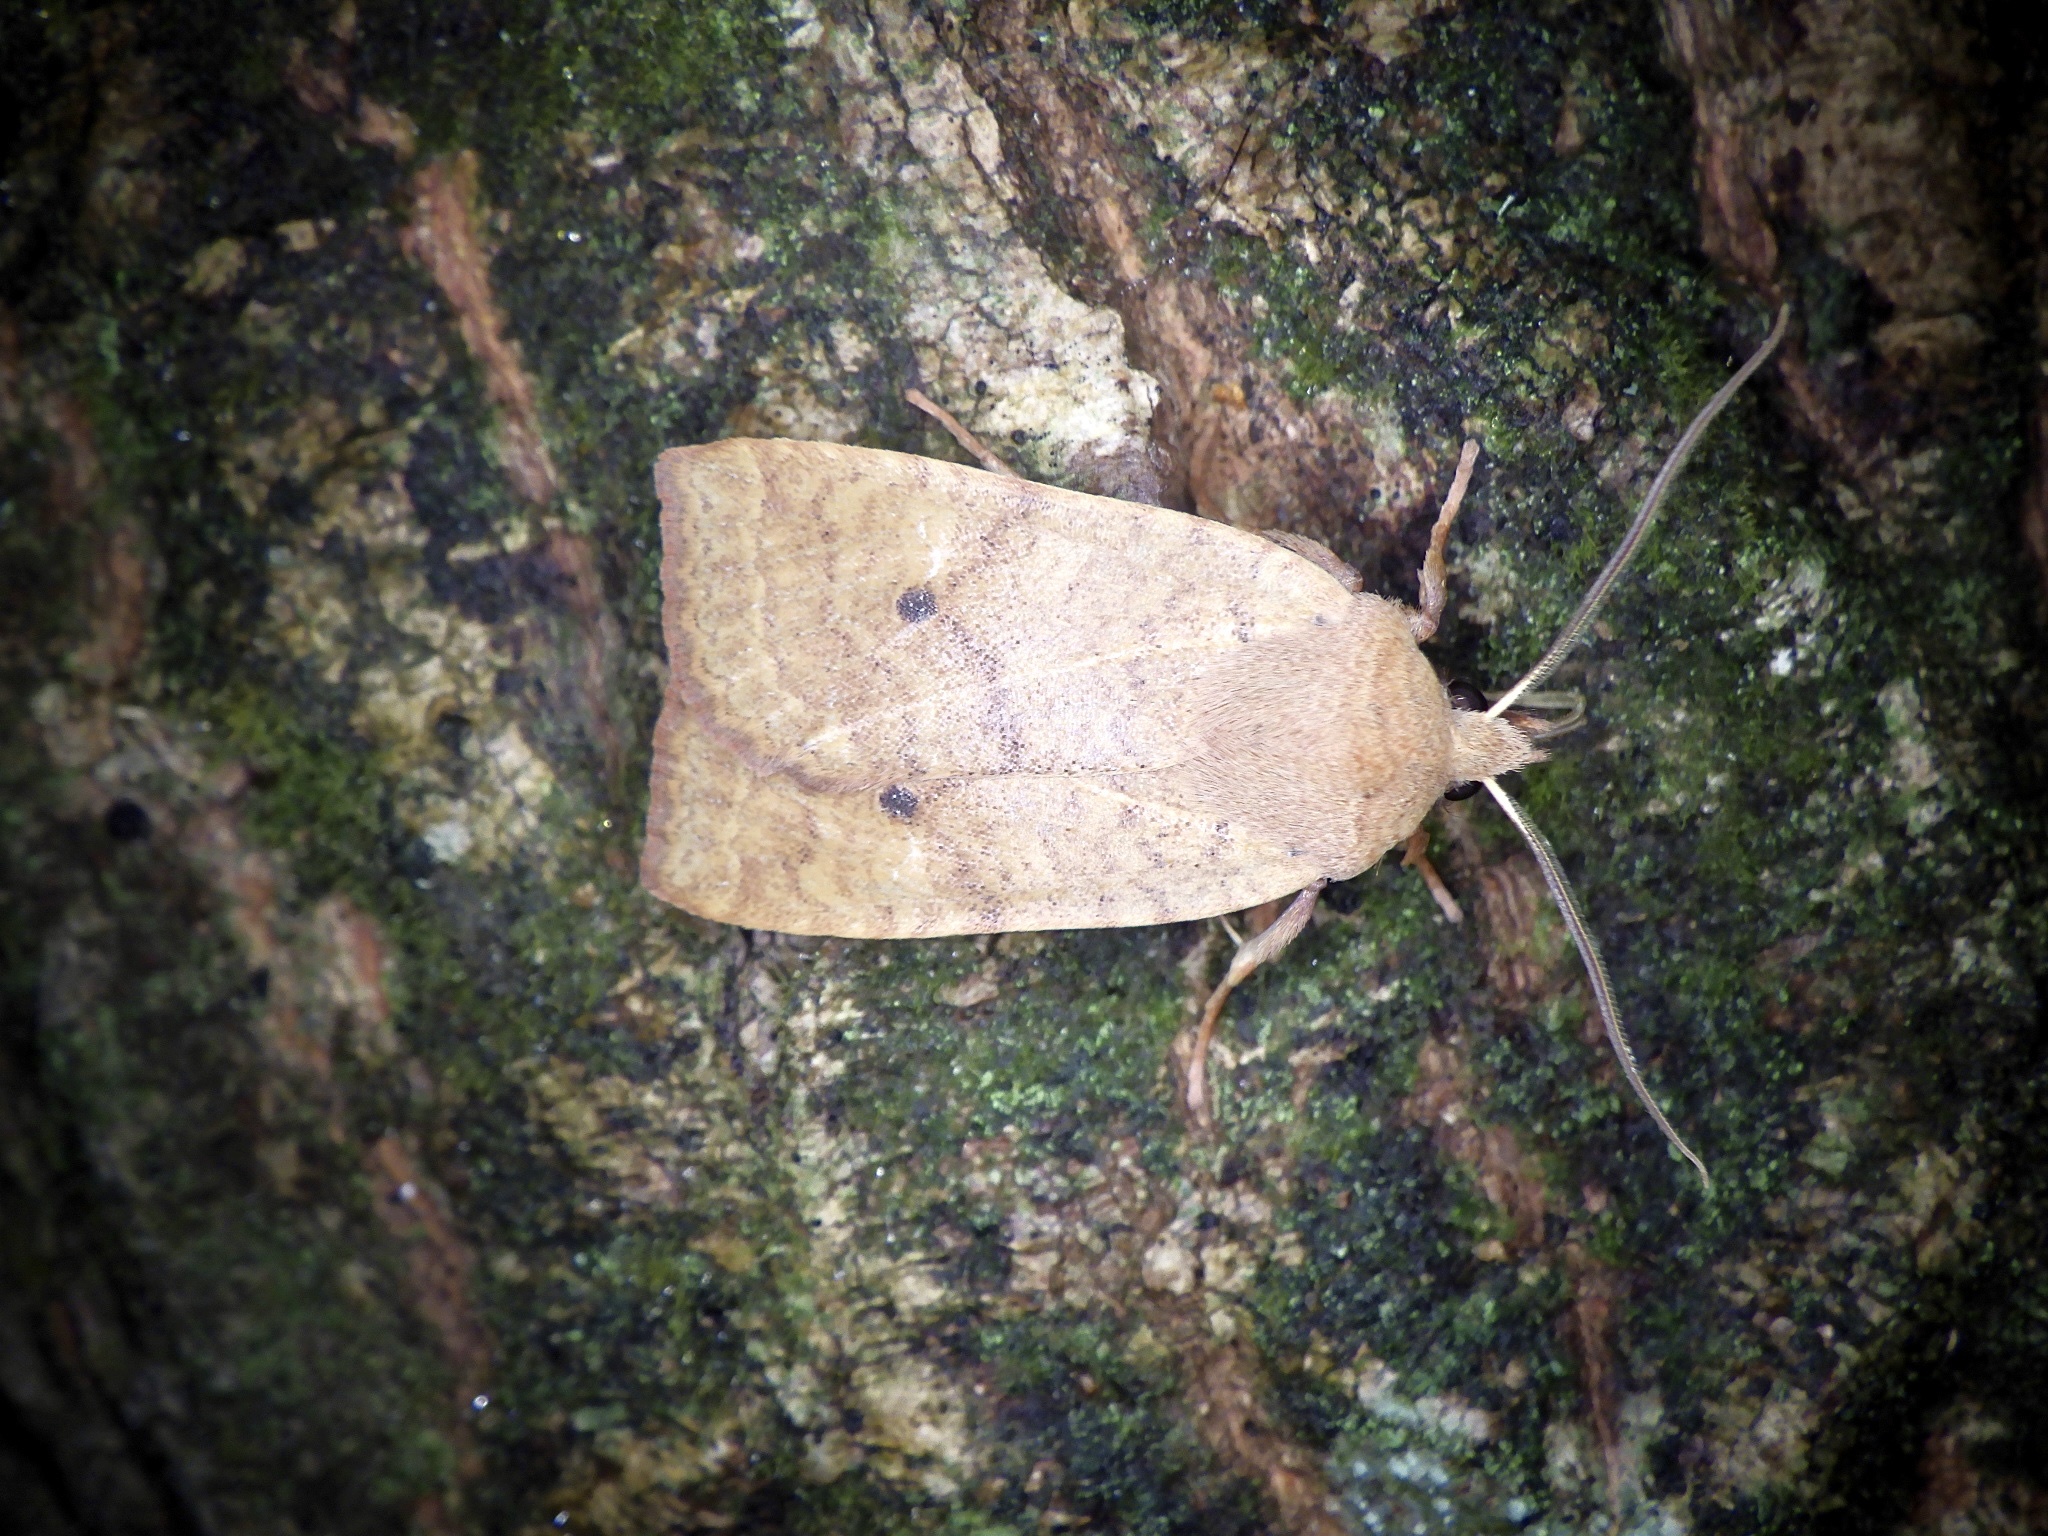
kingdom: Animalia
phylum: Arthropoda
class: Insecta
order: Lepidoptera
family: Noctuidae
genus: Conistra
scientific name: Conistra albipuncta
